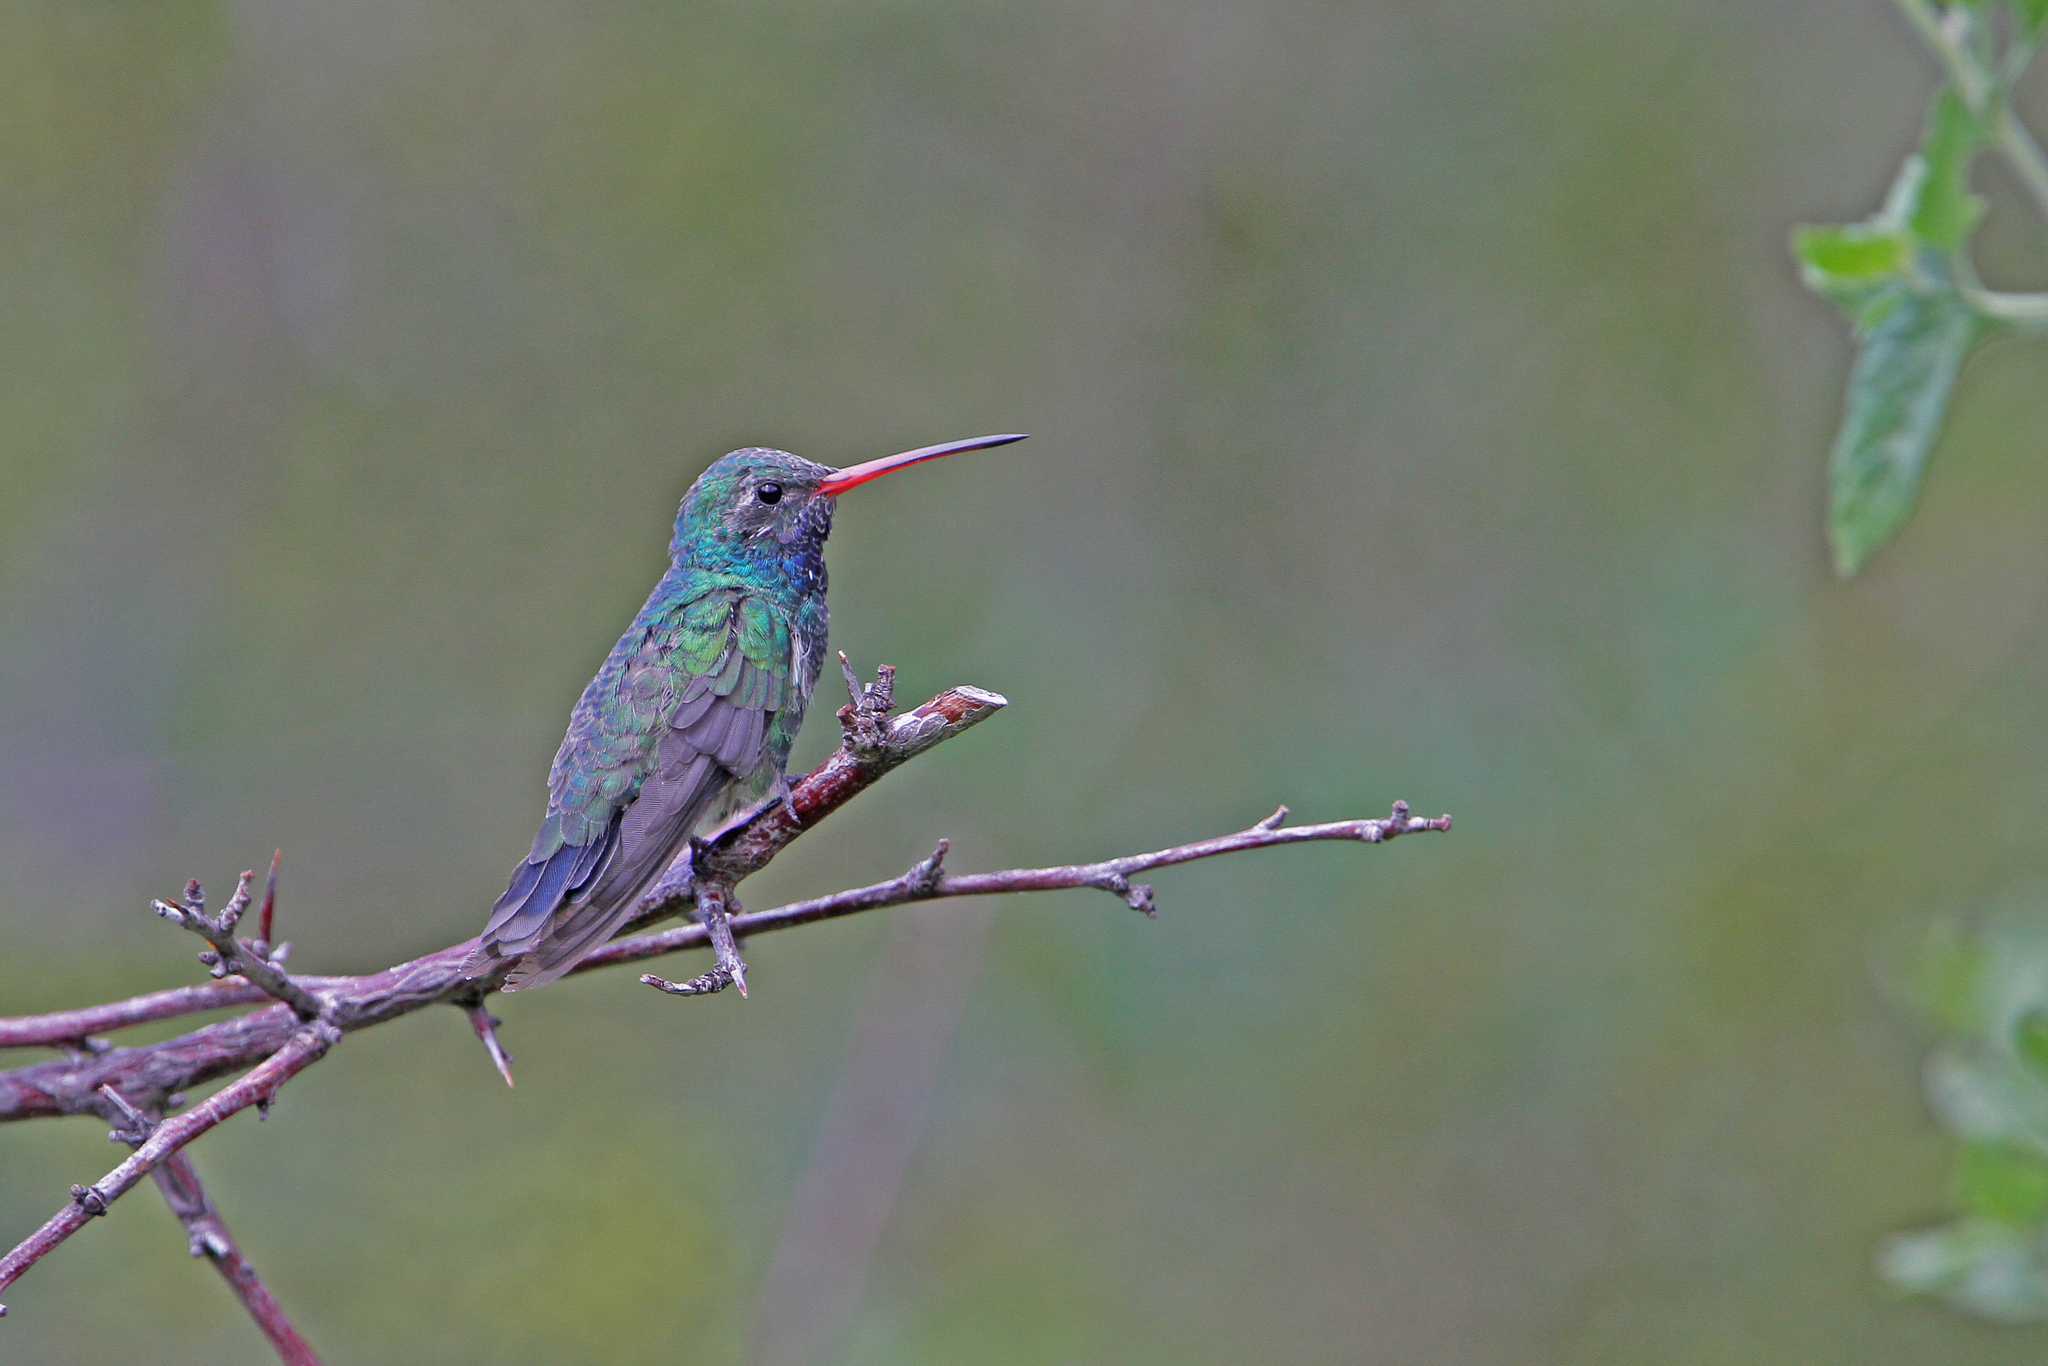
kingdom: Animalia
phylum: Chordata
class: Aves
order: Apodiformes
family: Trochilidae
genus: Cynanthus
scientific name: Cynanthus latirostris
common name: Broad-billed hummingbird
